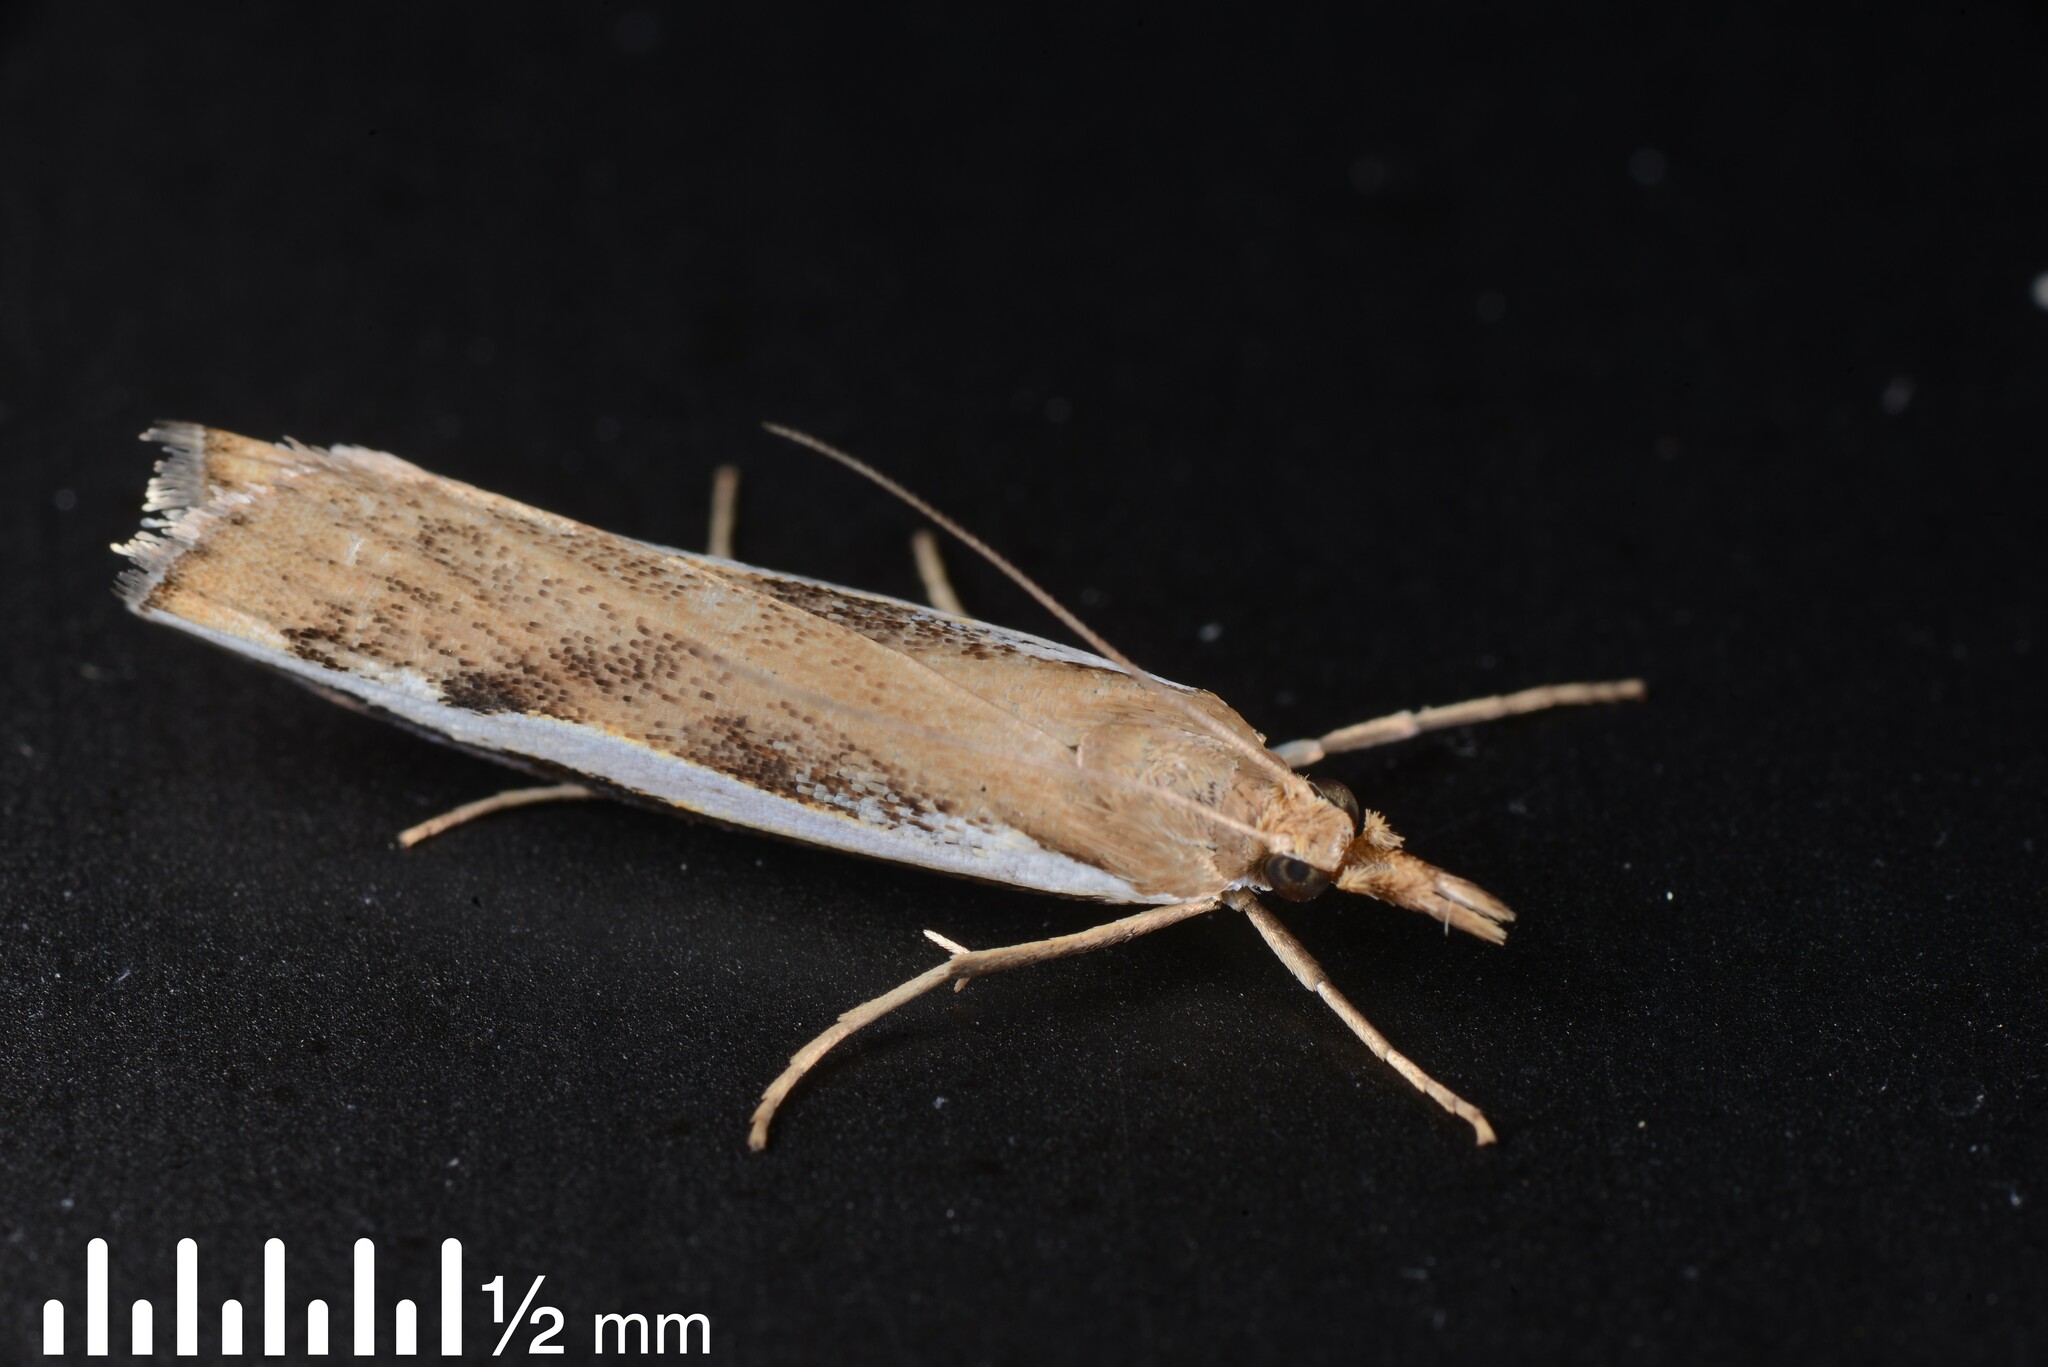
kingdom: Animalia
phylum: Arthropoda
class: Insecta
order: Lepidoptera
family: Crambidae
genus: Orocrambus
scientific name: Orocrambus flexuosellus
